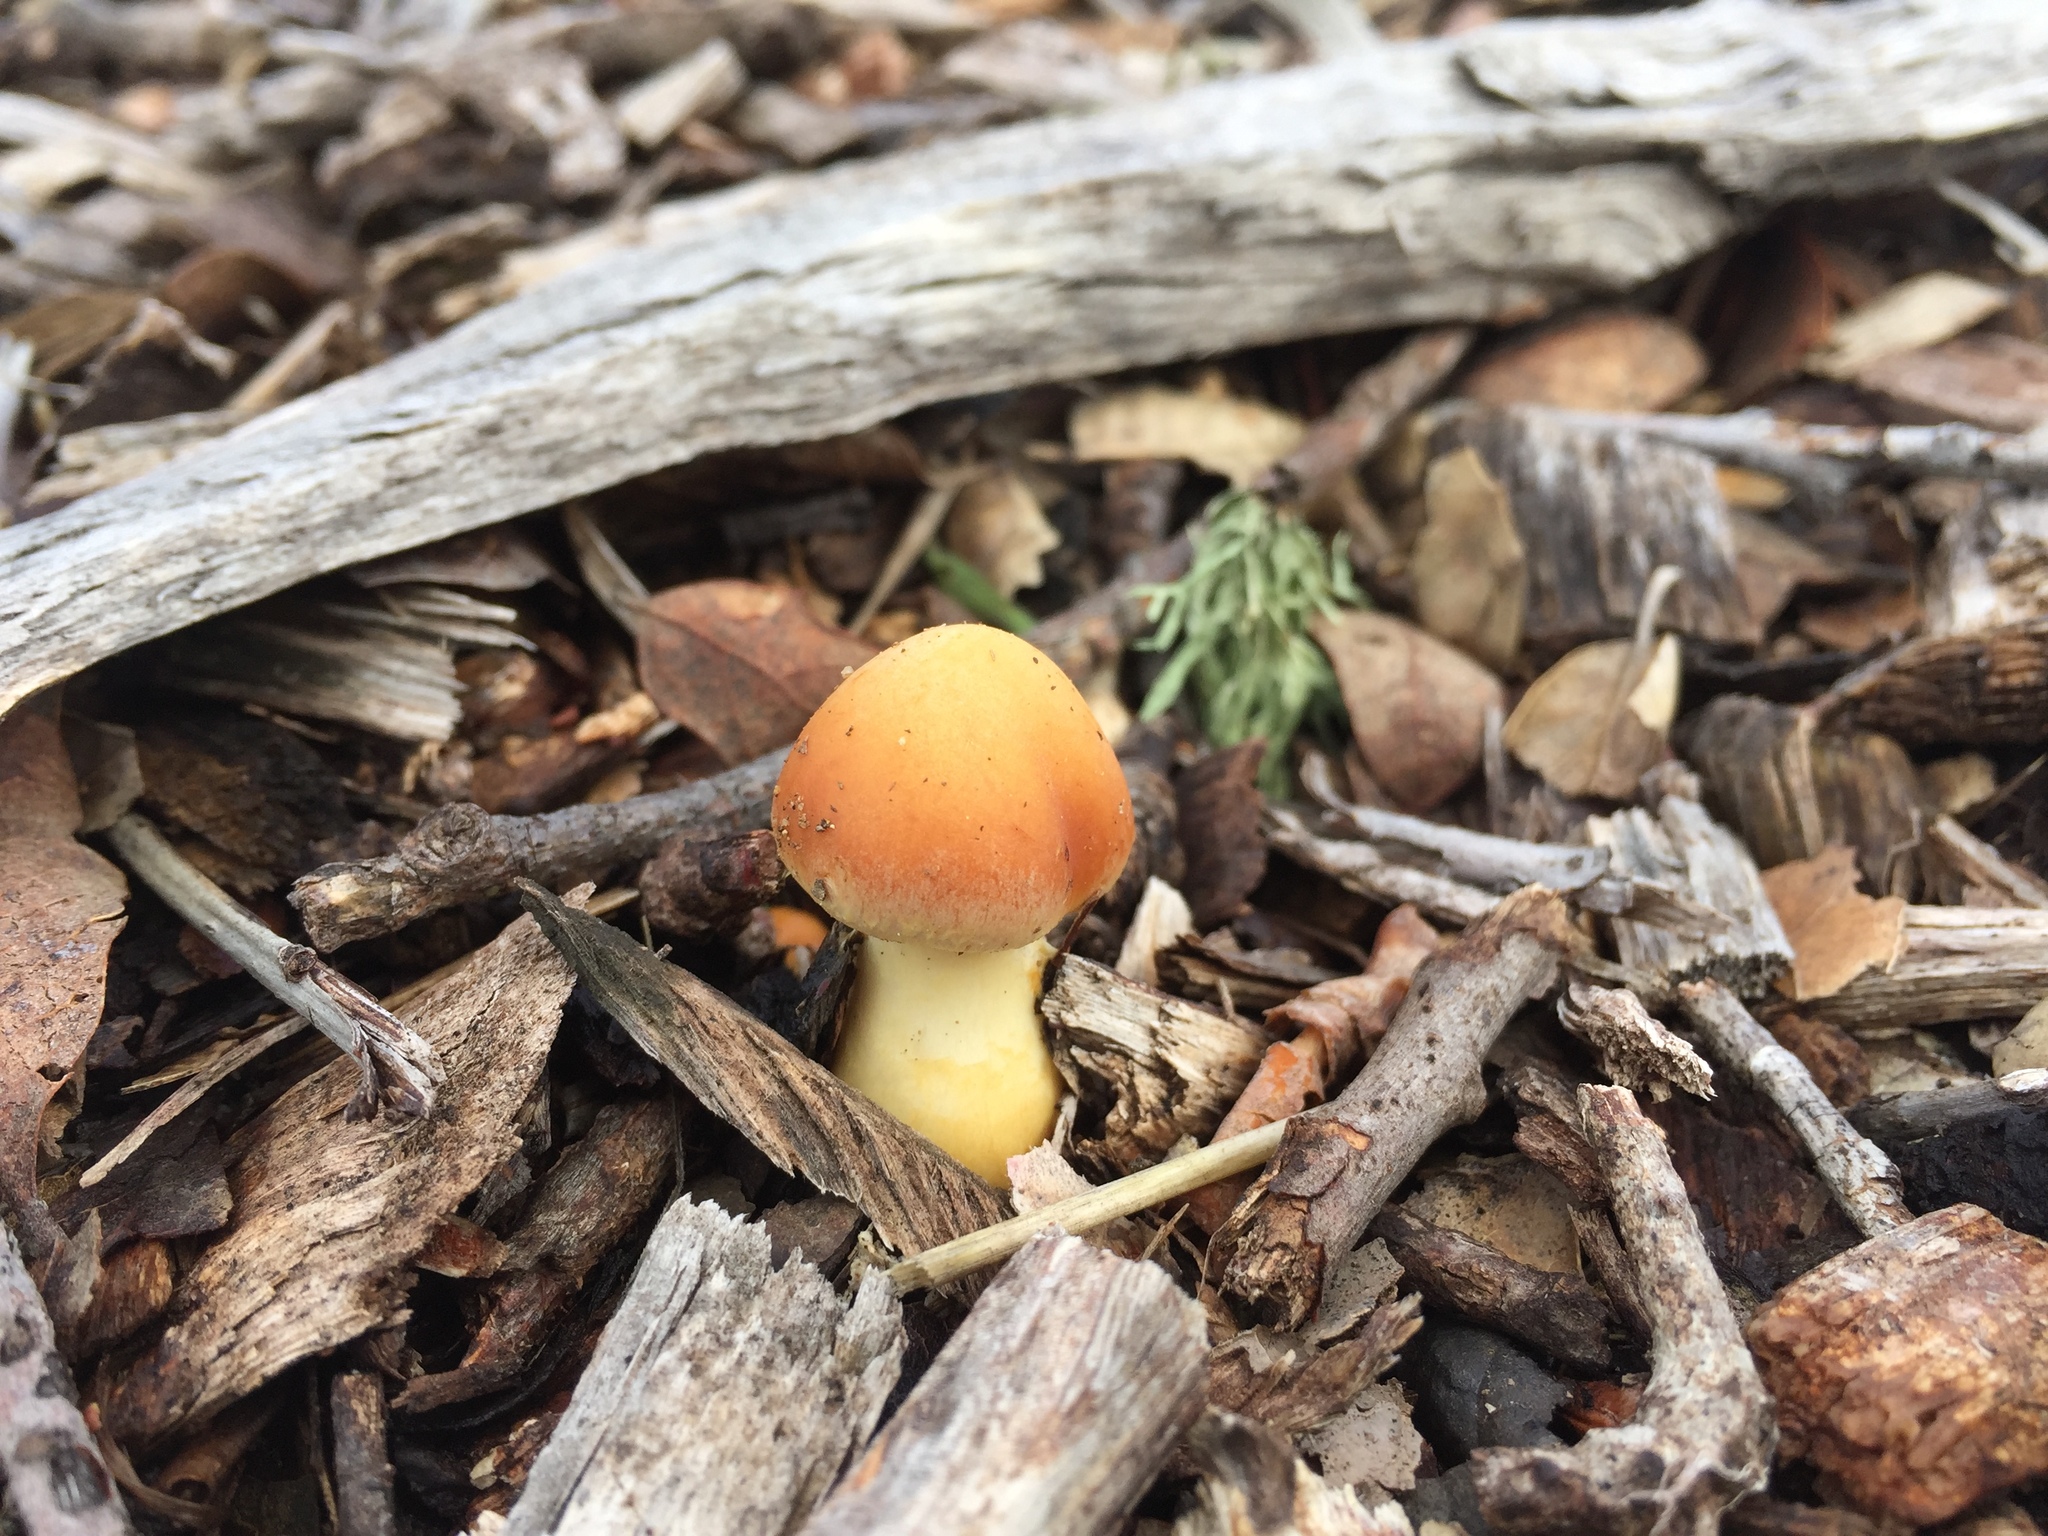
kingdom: Fungi
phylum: Basidiomycota
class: Agaricomycetes
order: Agaricales
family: Strophariaceae
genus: Agrocybe
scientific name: Agrocybe putaminum
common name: Mulch fieldcap
